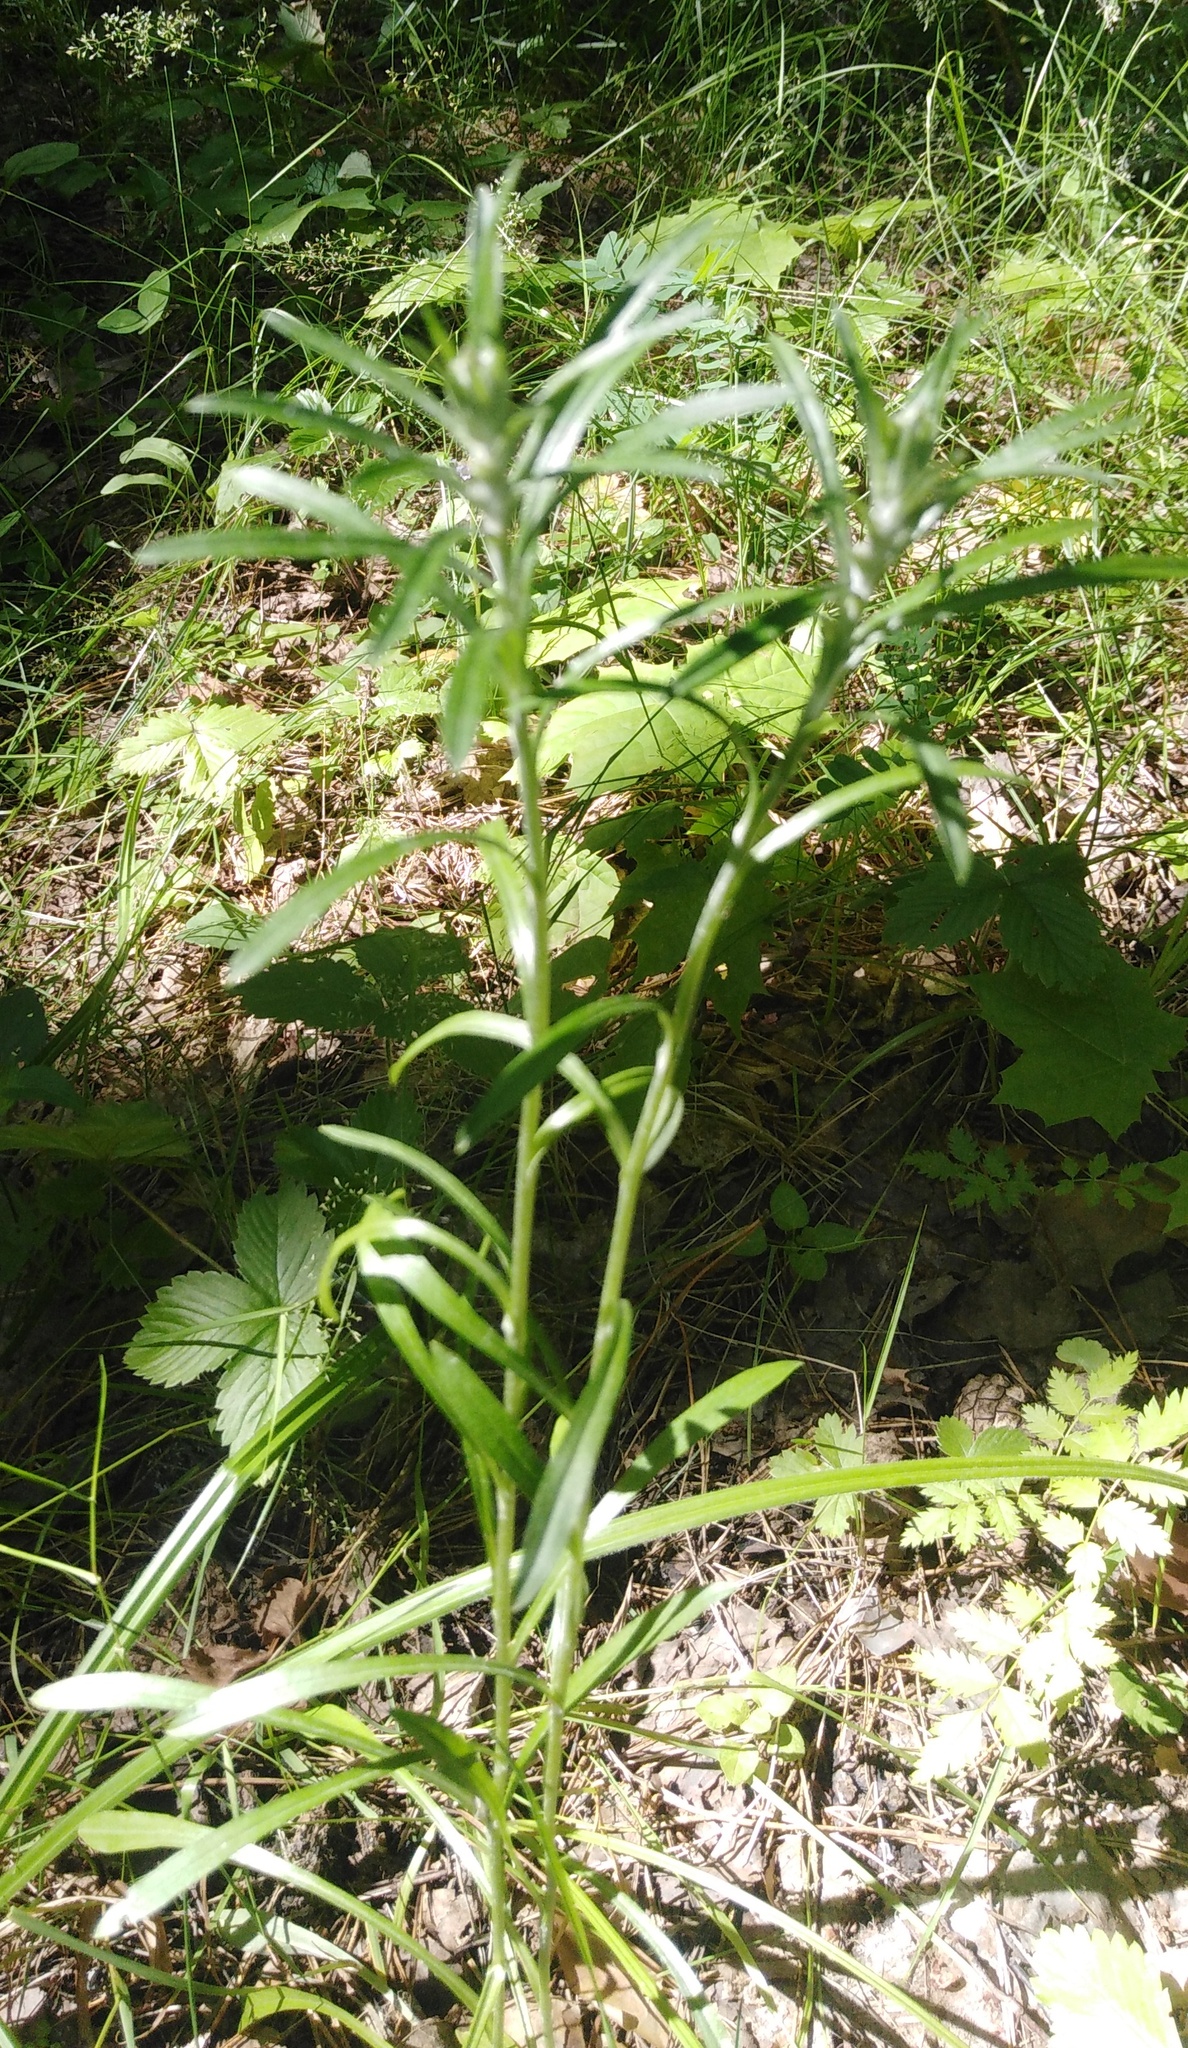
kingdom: Plantae
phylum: Tracheophyta
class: Magnoliopsida
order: Asterales
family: Asteraceae
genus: Omalotheca
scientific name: Omalotheca sylvatica
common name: Heath cudweed
